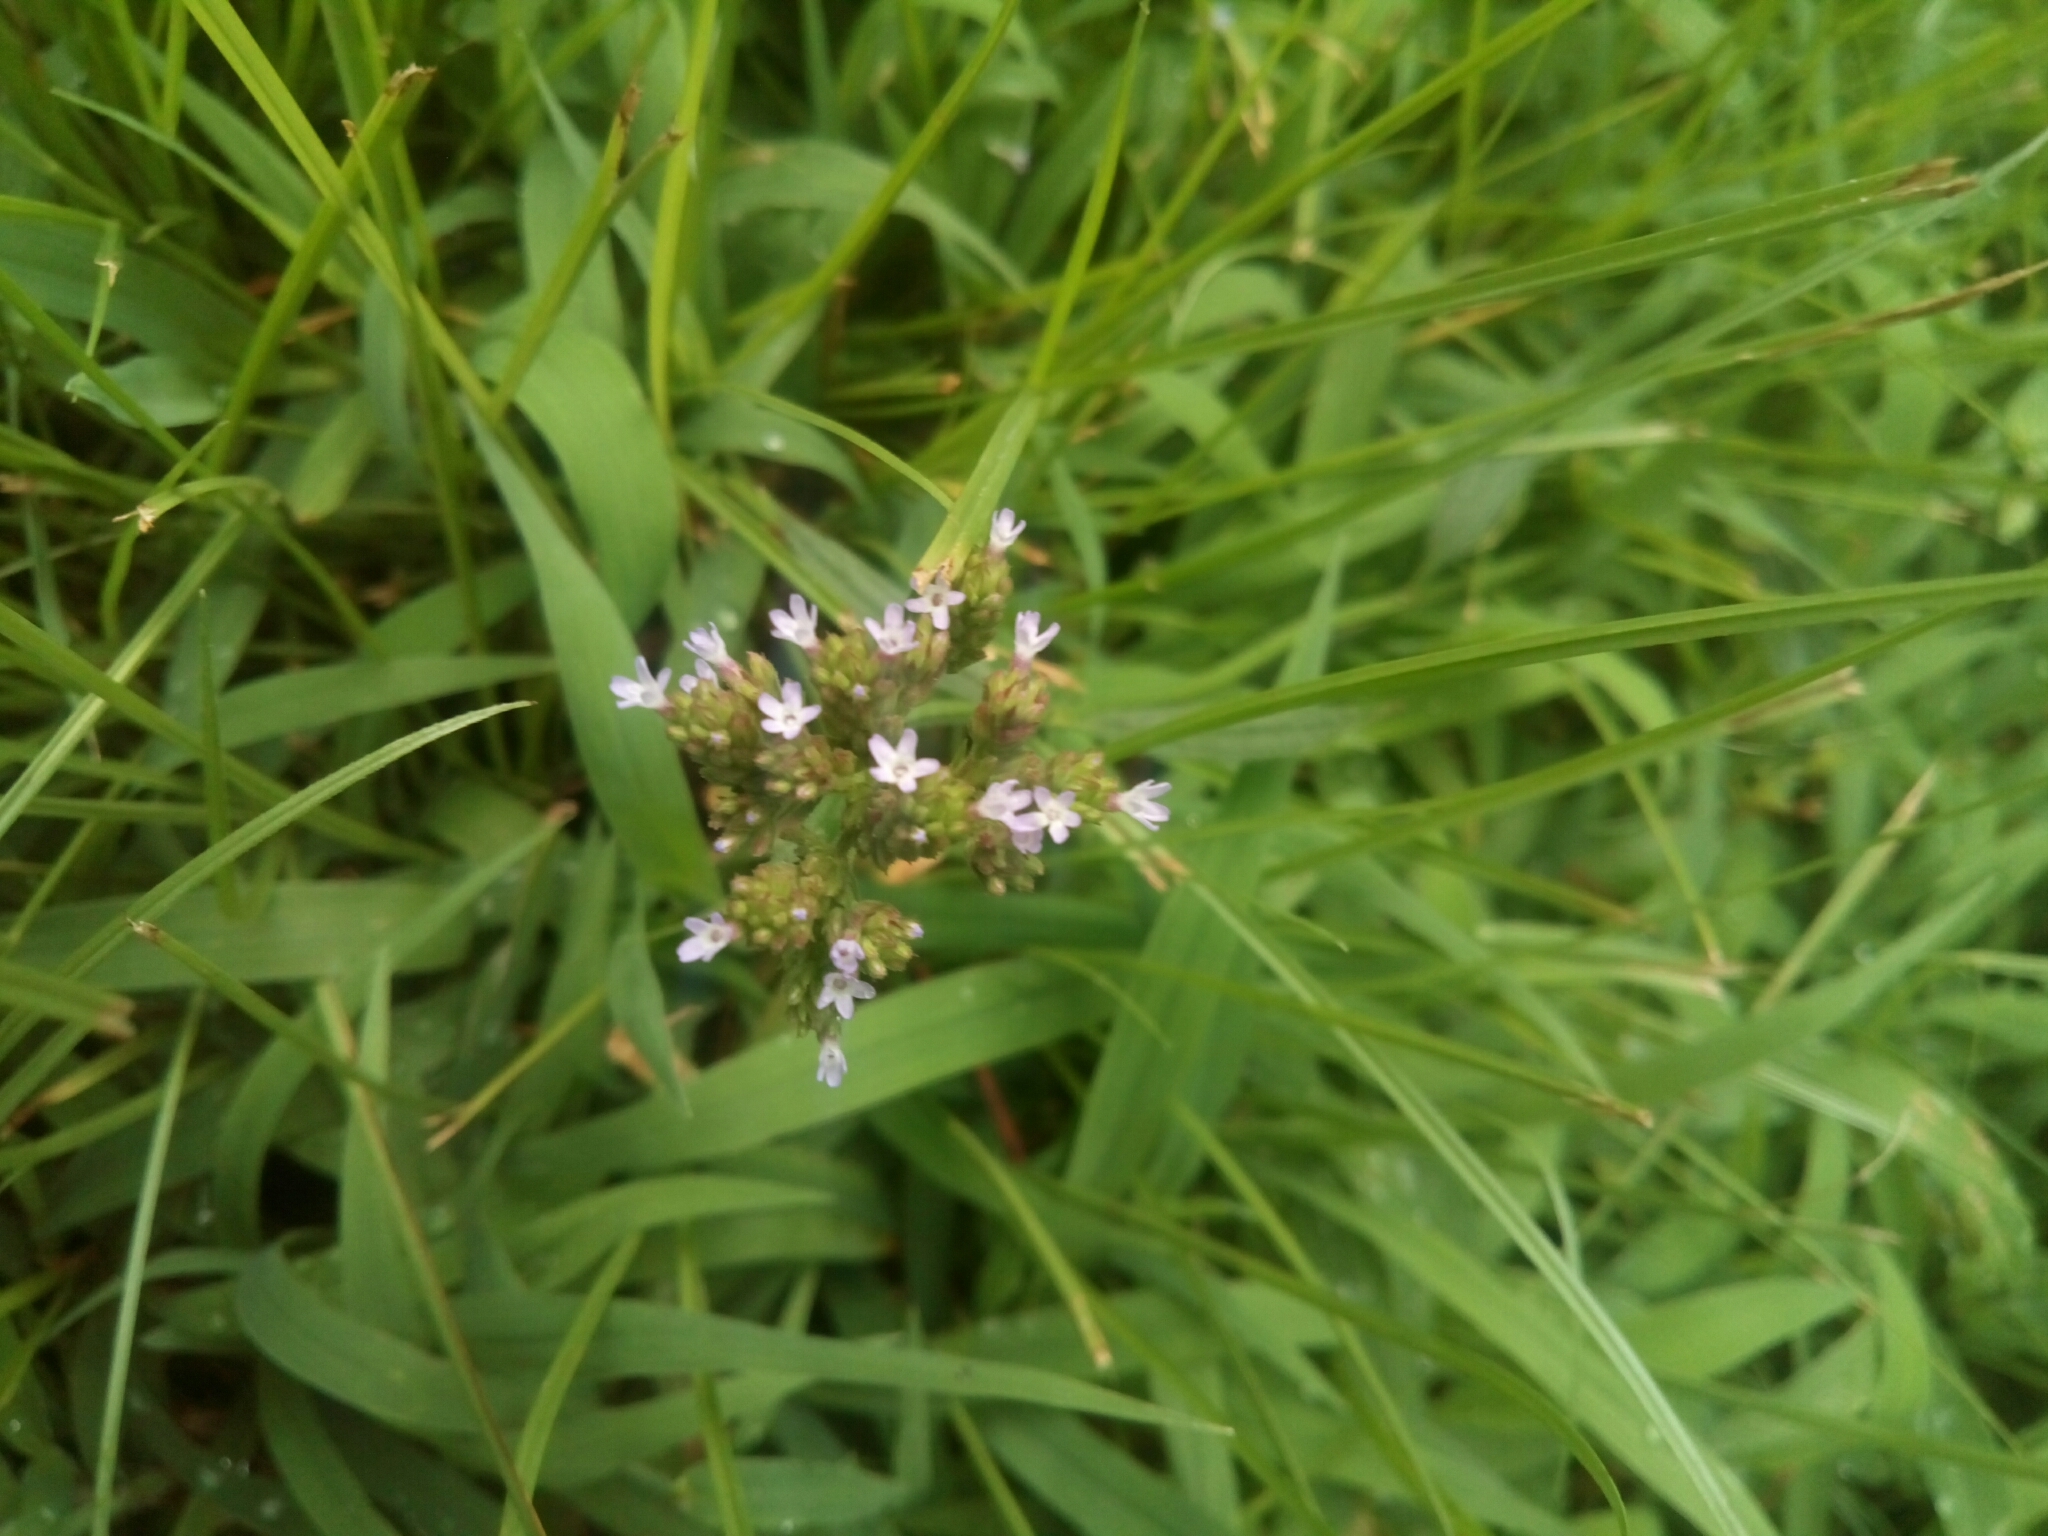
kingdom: Plantae
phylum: Tracheophyta
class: Magnoliopsida
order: Lamiales
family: Verbenaceae
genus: Verbena
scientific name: Verbena brasiliensis
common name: Brazilian vervain
